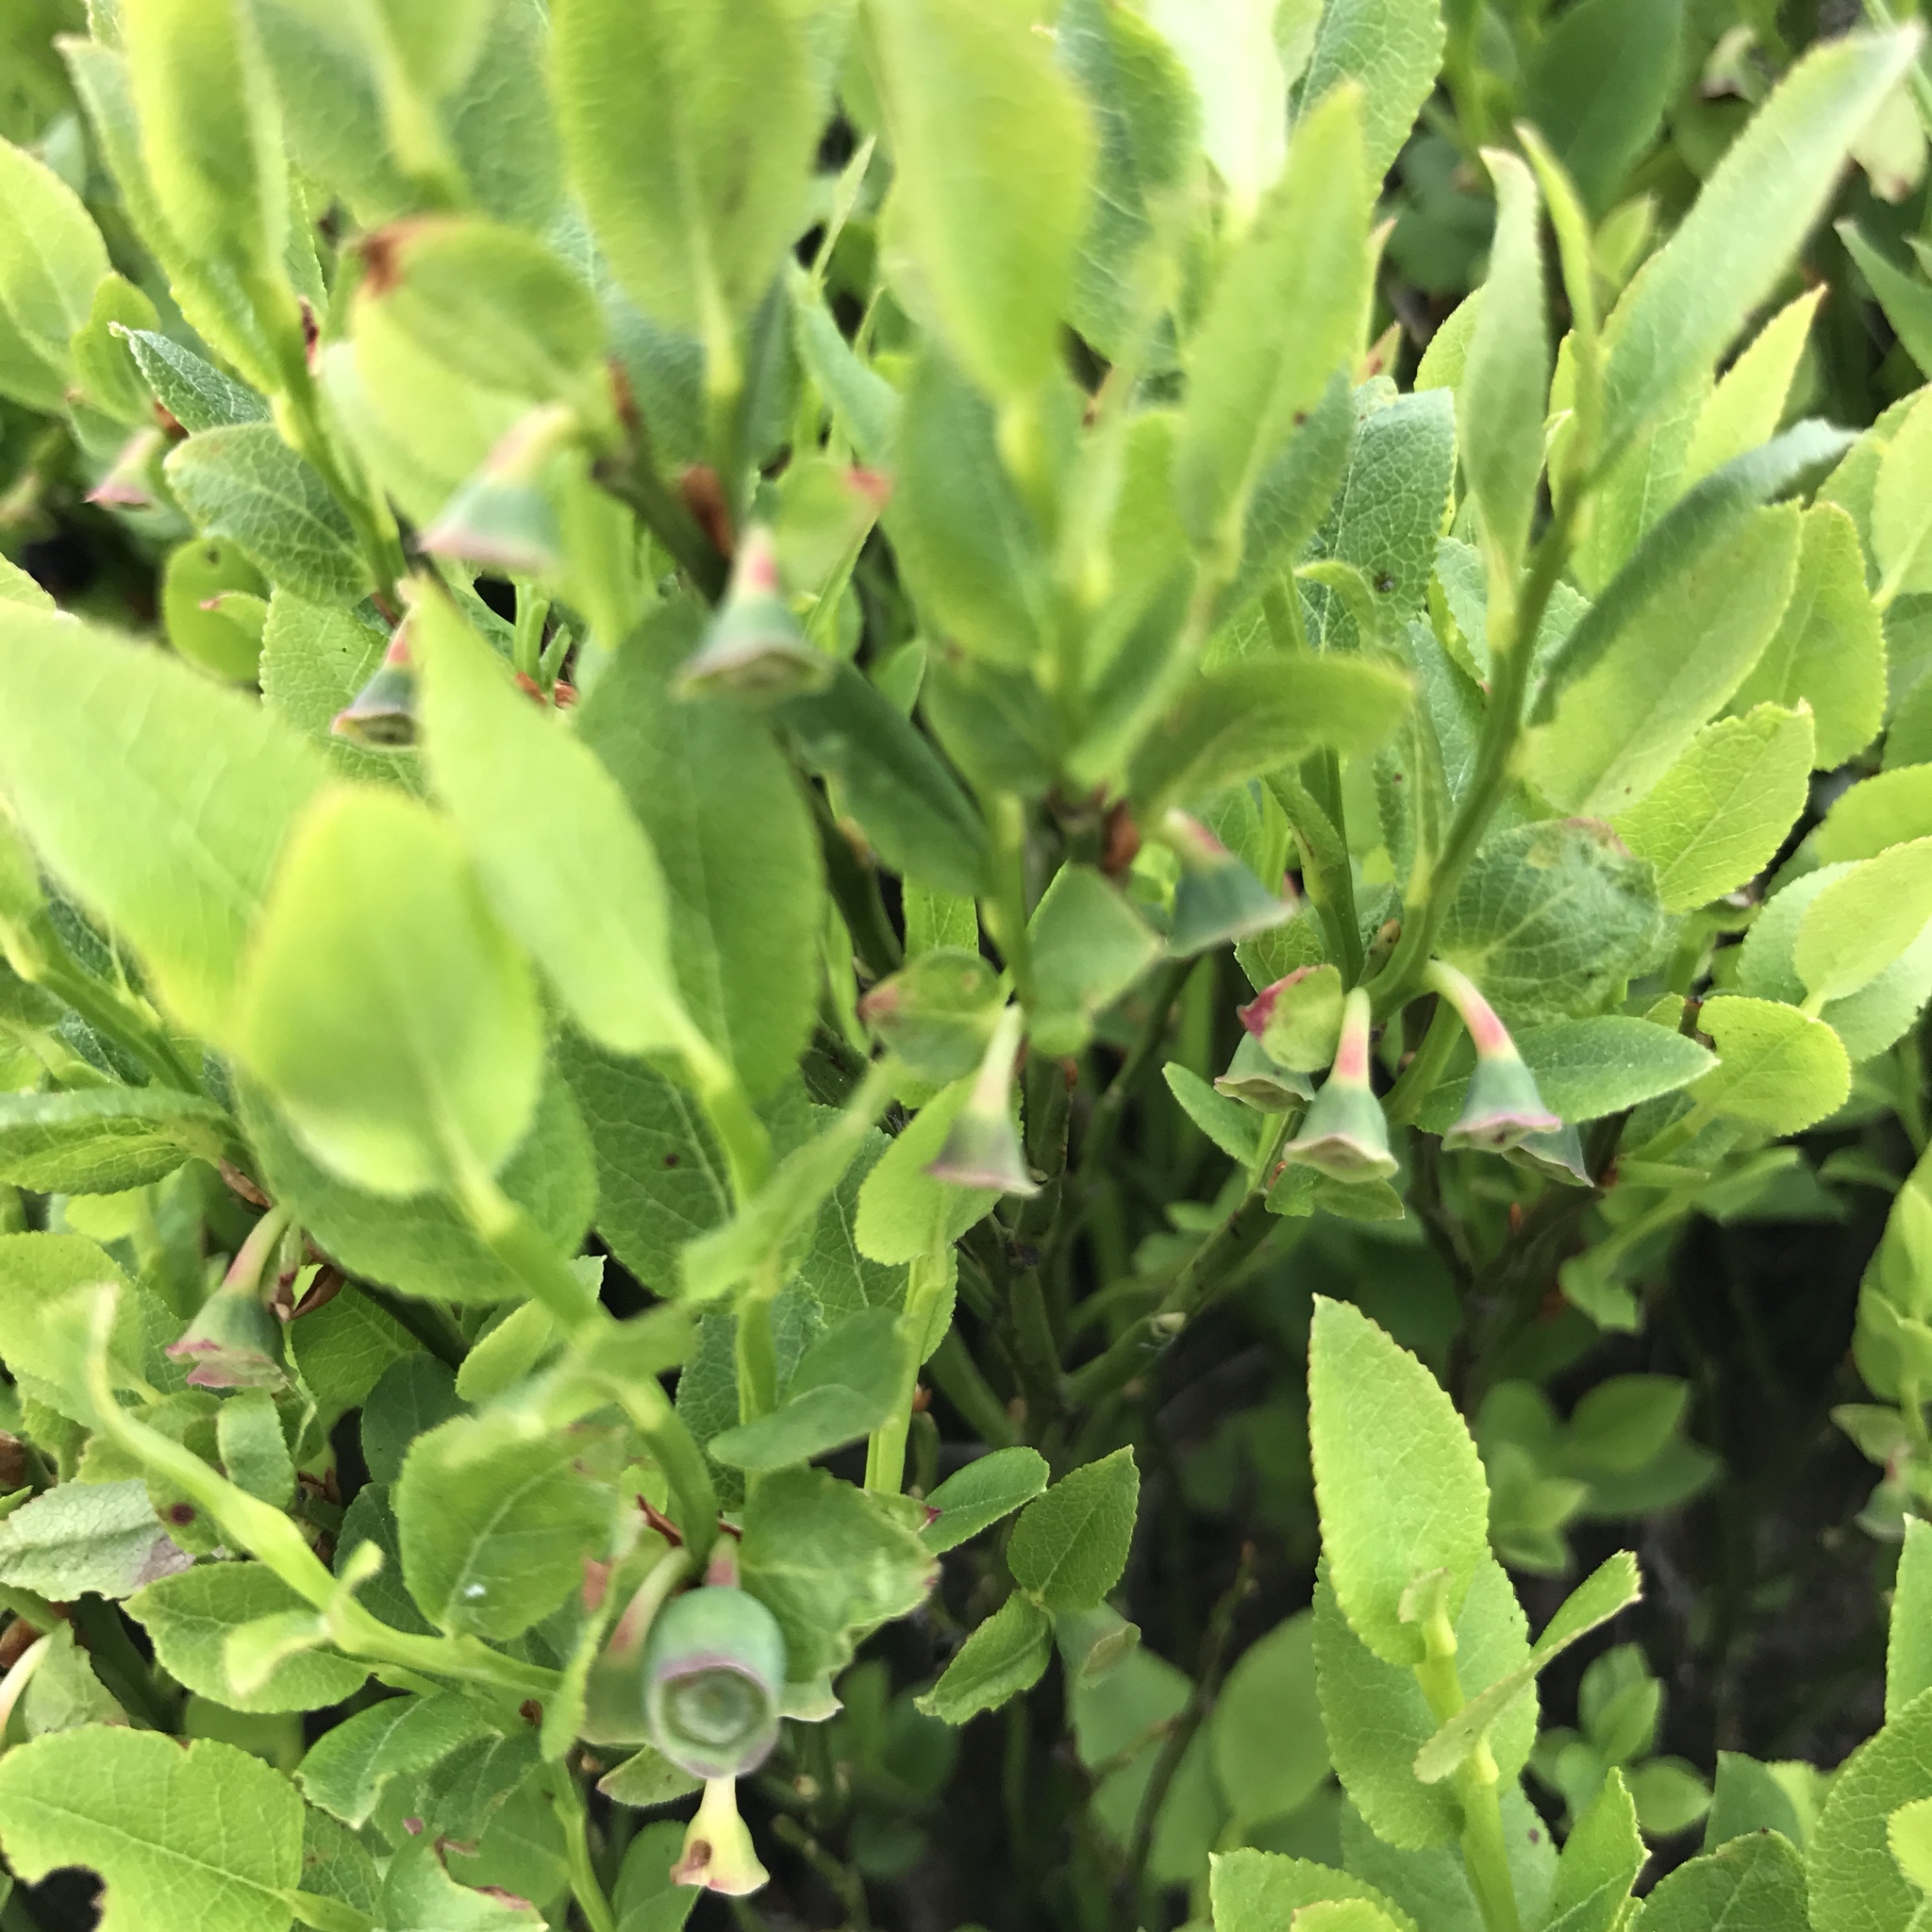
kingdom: Plantae
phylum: Tracheophyta
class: Magnoliopsida
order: Ericales
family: Ericaceae
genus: Vaccinium
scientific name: Vaccinium myrtillus
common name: Bilberry
